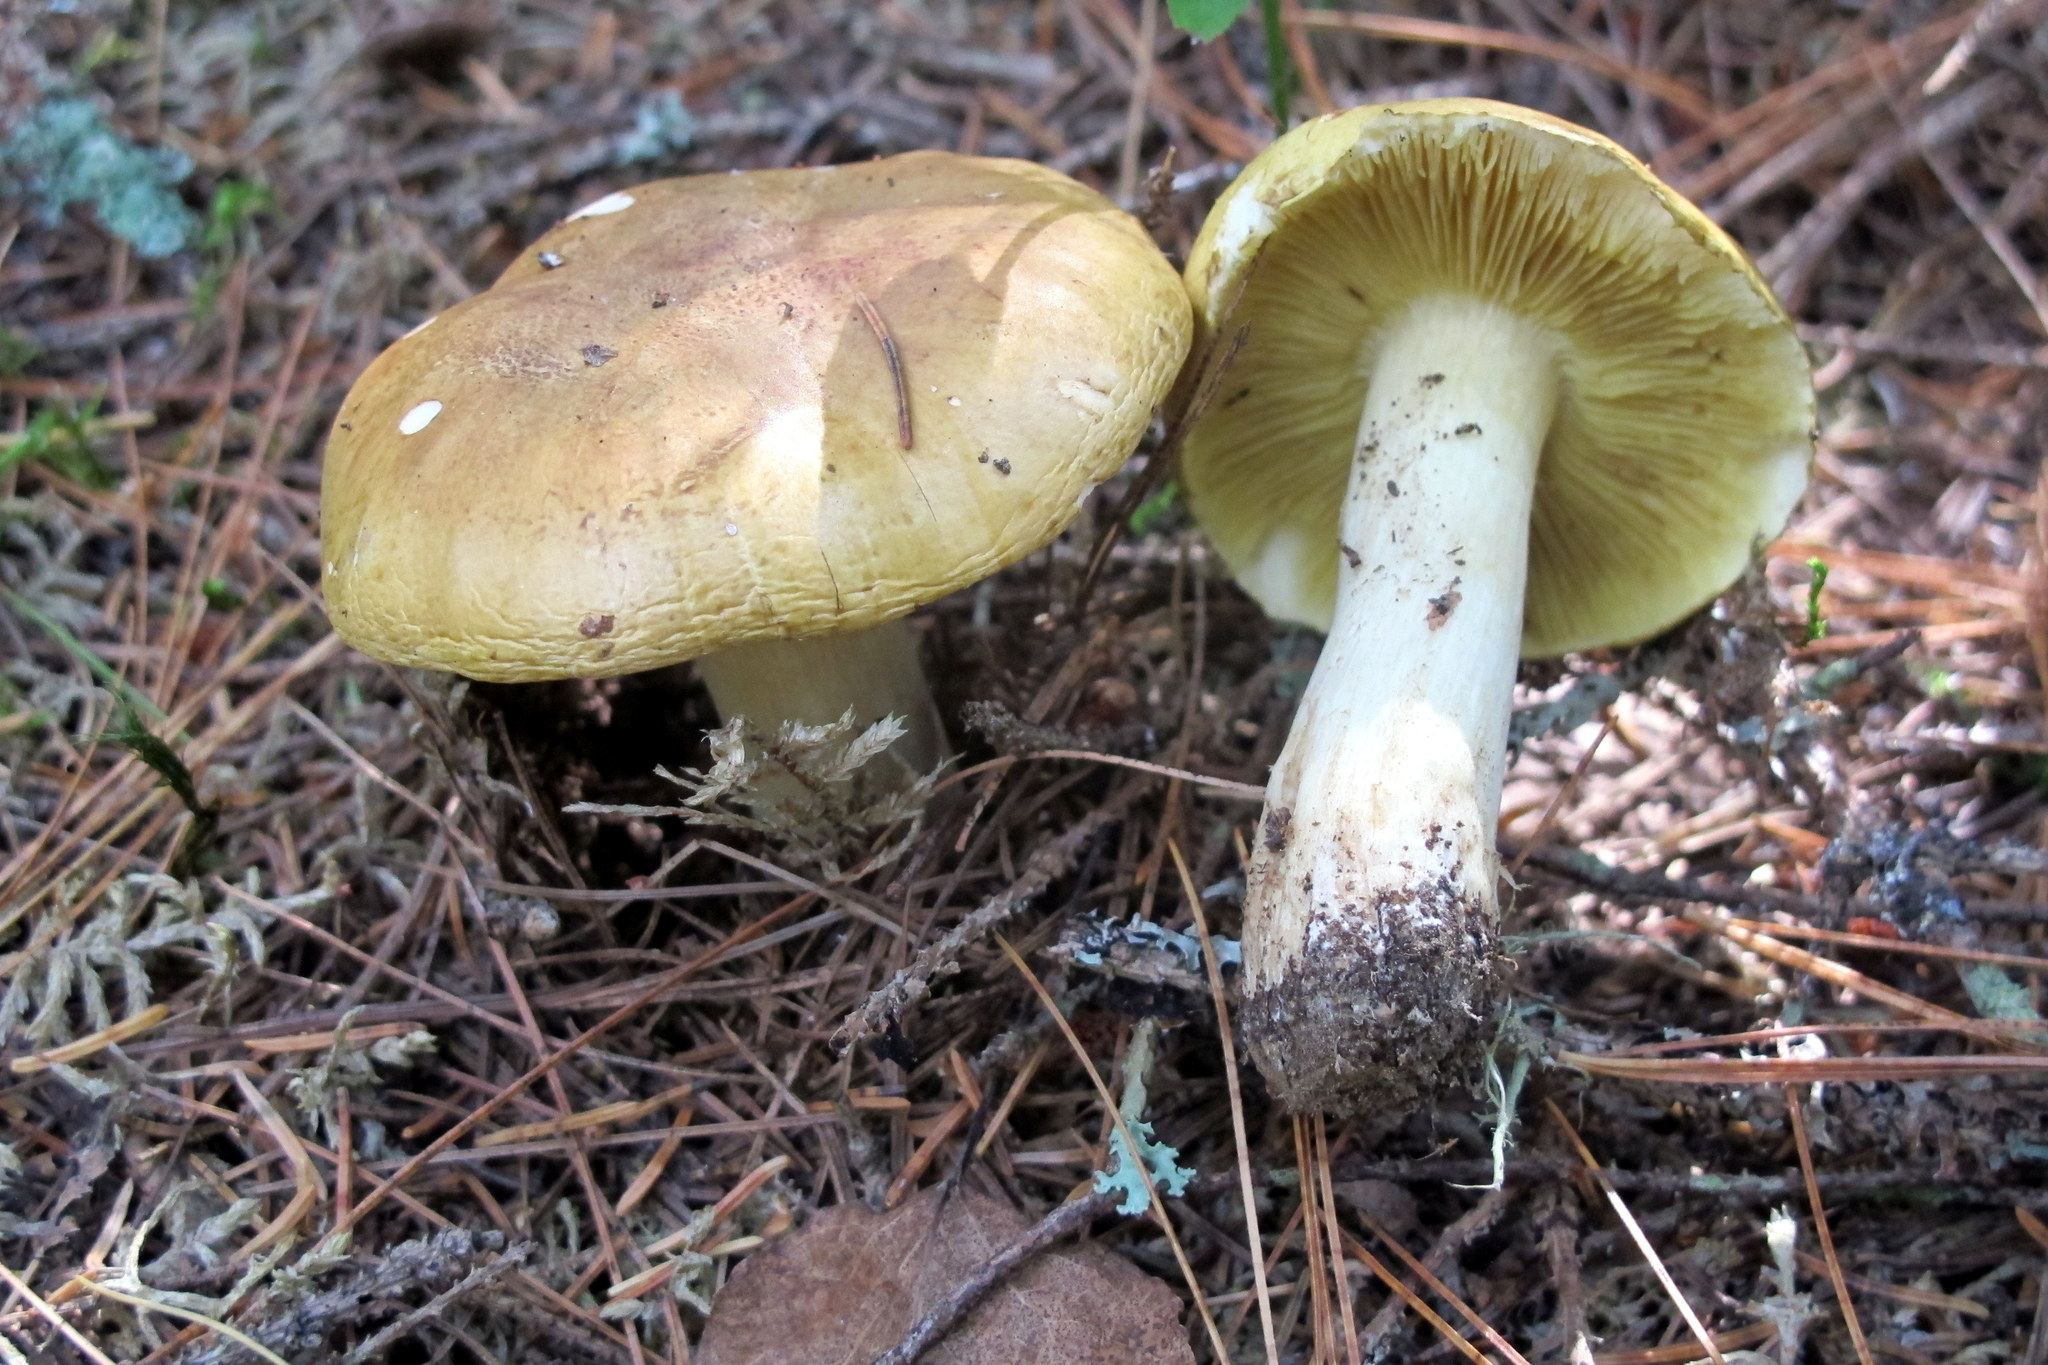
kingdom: Fungi
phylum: Basidiomycota
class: Agaricomycetes
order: Agaricales
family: Tricholomataceae
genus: Tricholoma
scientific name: Tricholoma equestre
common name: Yellow knight
